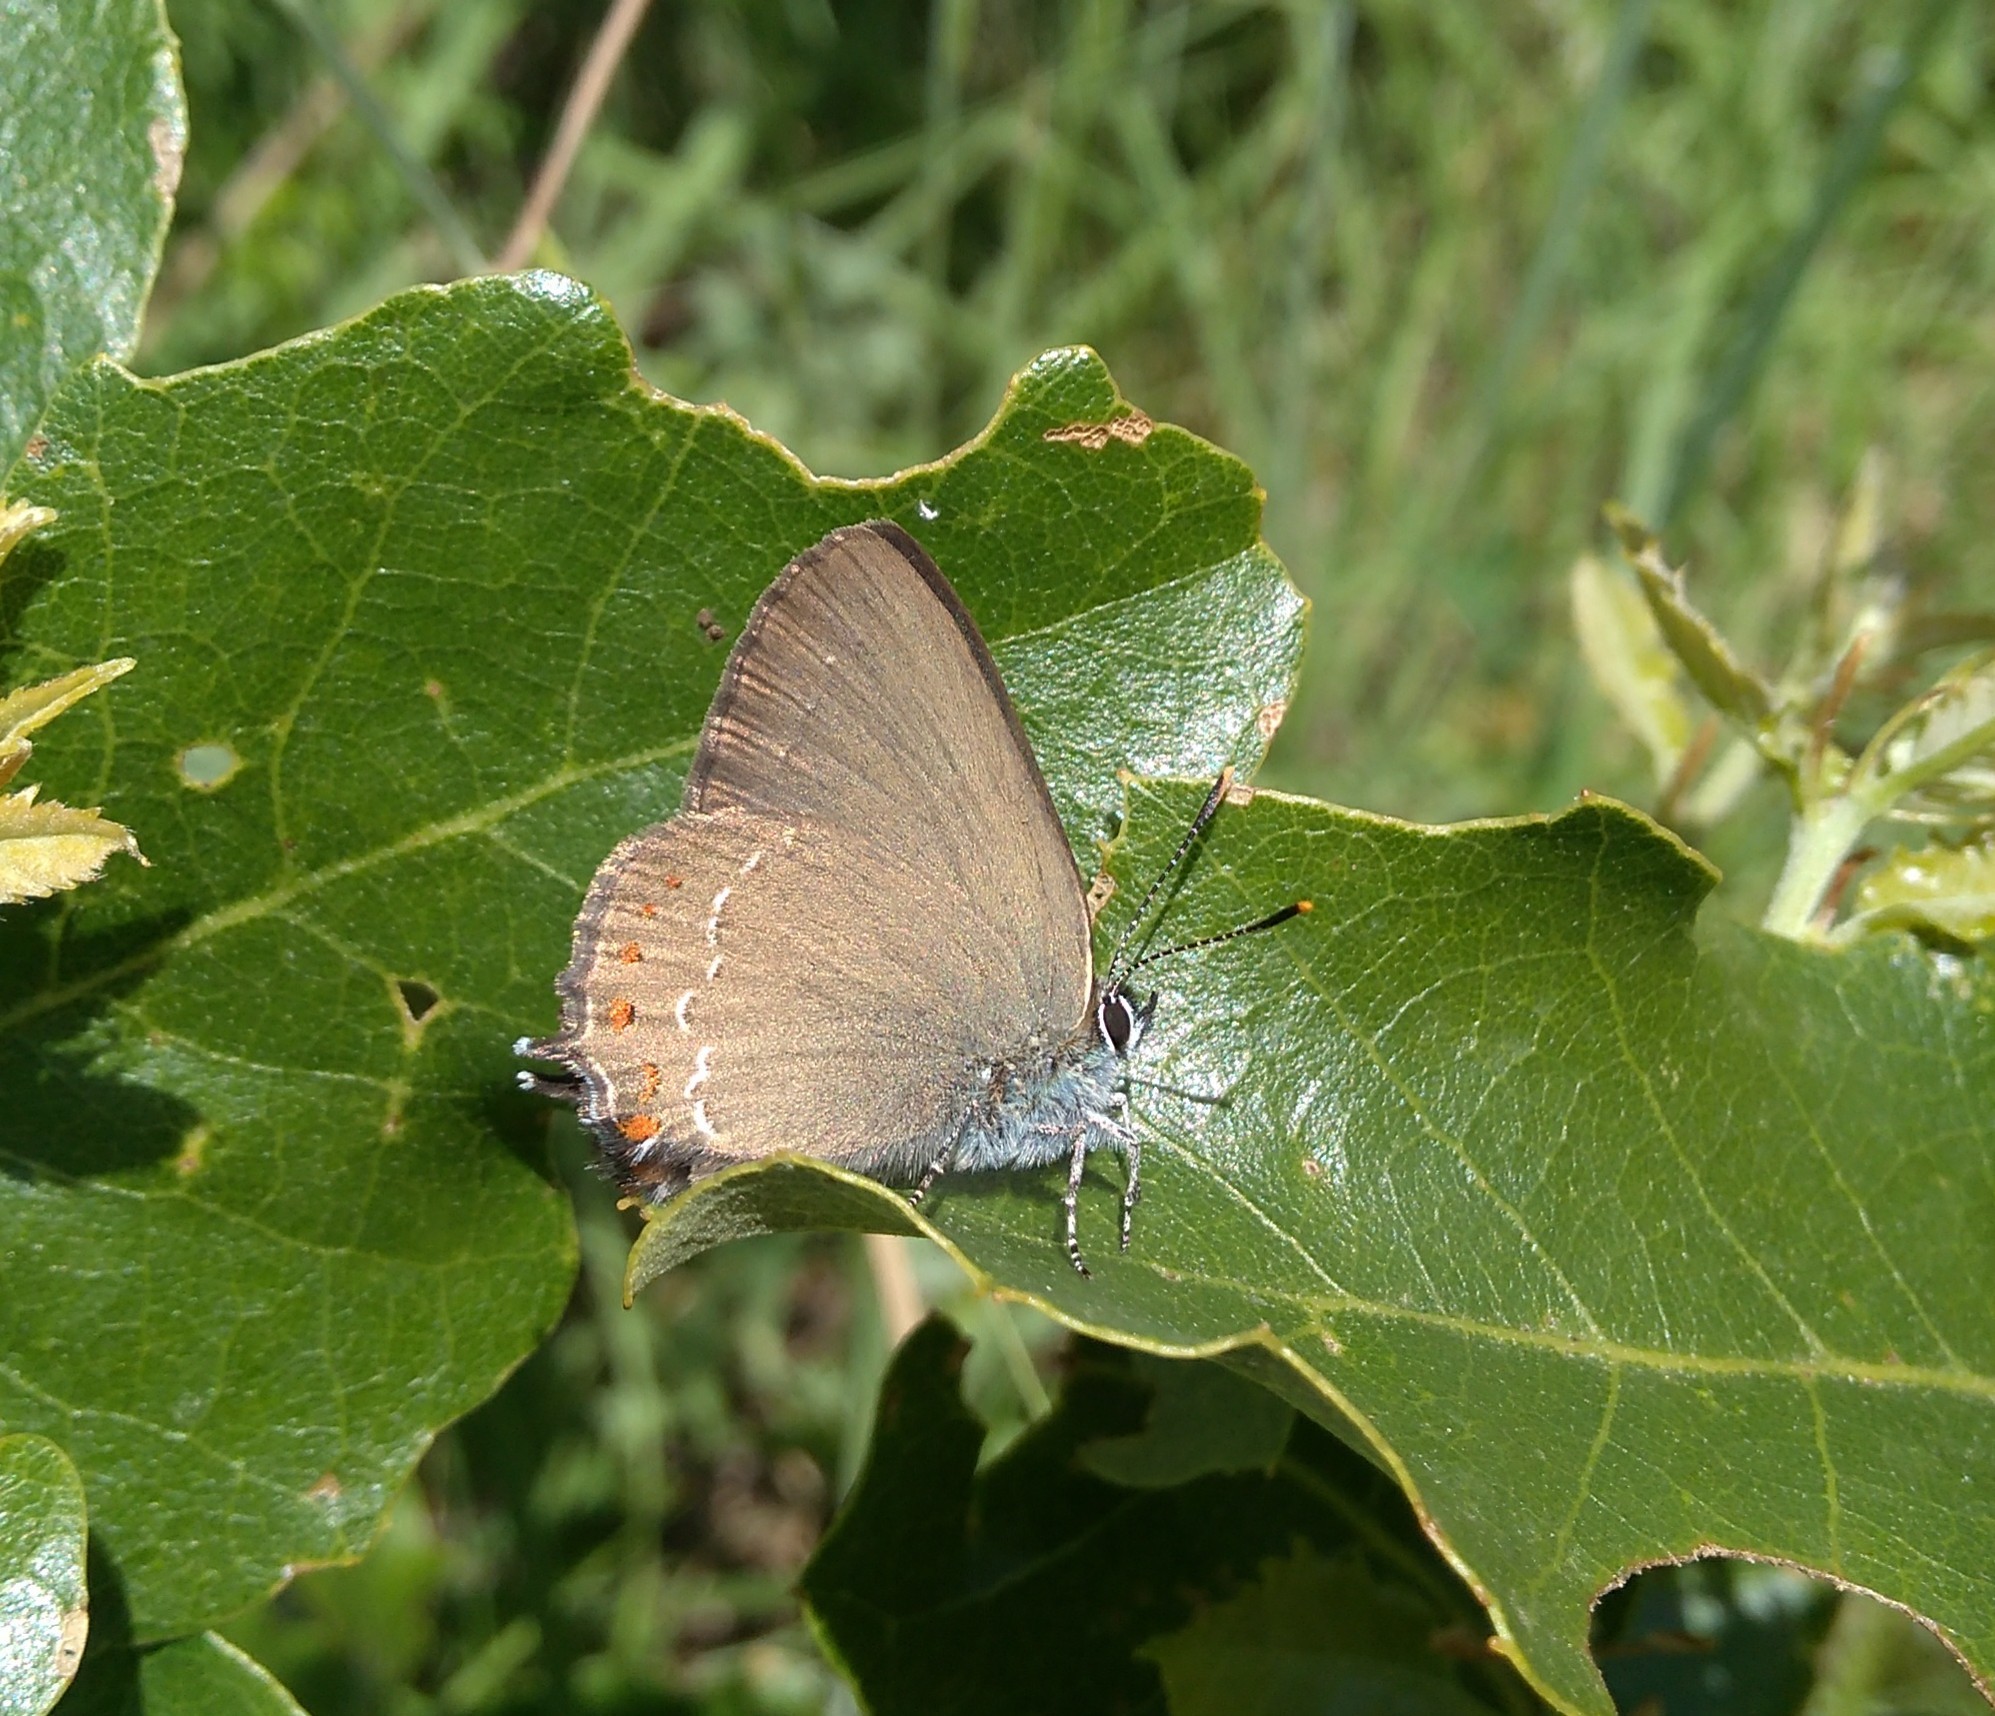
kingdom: Animalia
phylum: Arthropoda
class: Insecta
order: Lepidoptera
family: Lycaenidae
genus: Fixsenia
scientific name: Fixsenia esculi
